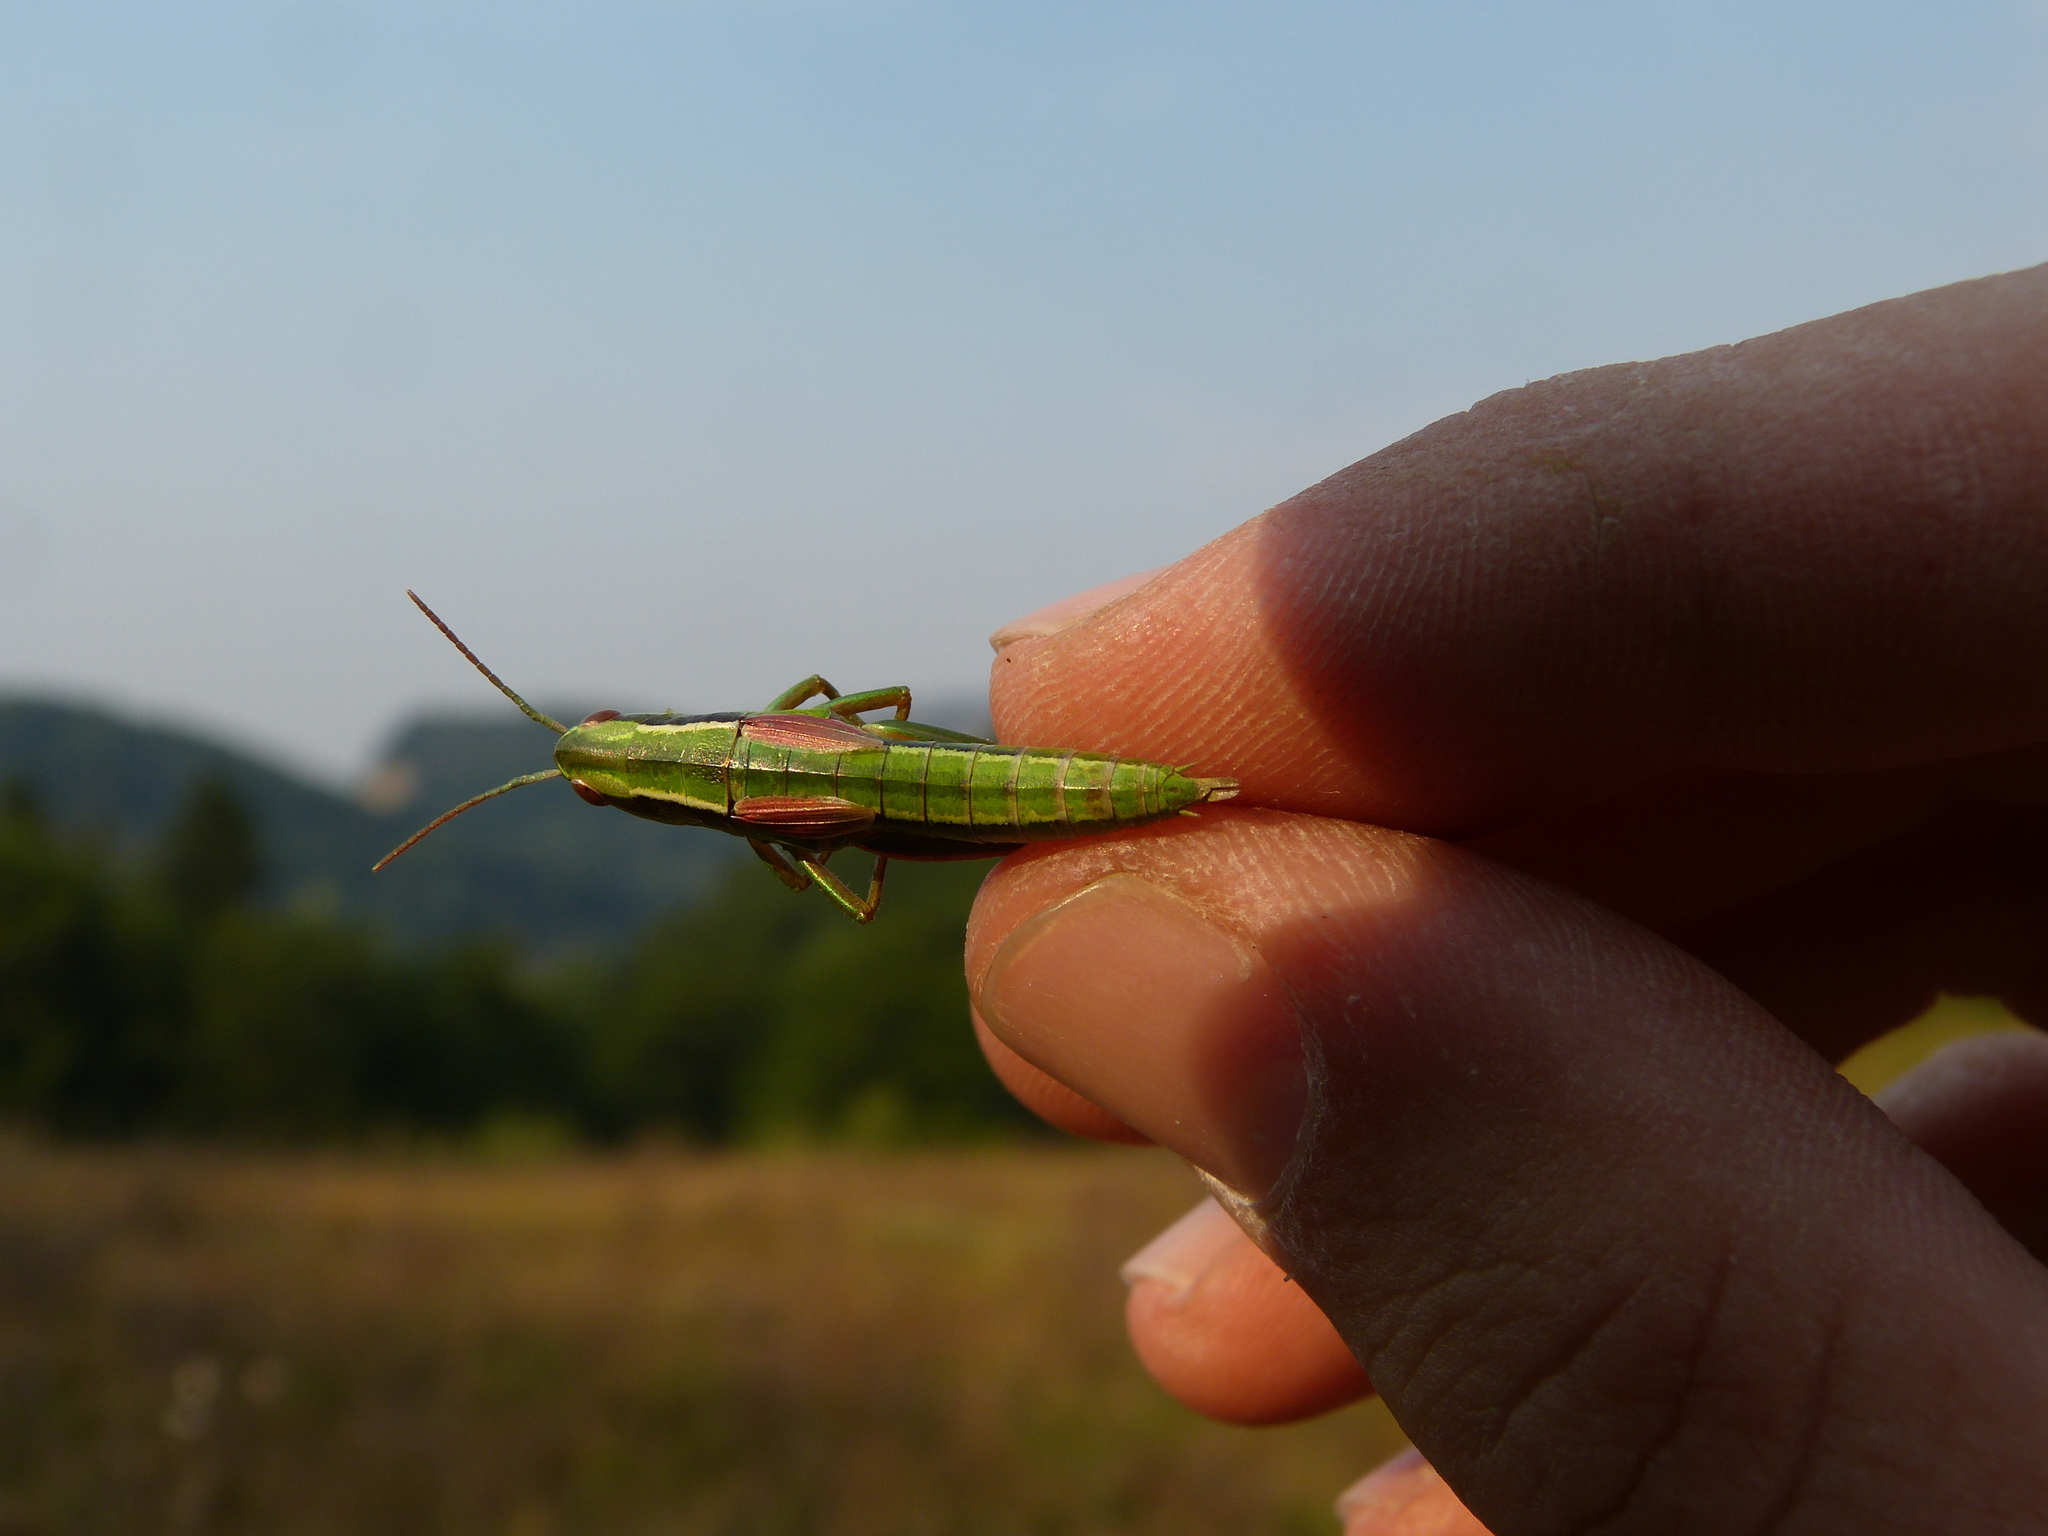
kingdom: Animalia
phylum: Arthropoda
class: Insecta
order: Orthoptera
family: Acrididae
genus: Euthystira
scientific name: Euthystira brachyptera
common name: Small gold grasshopper
